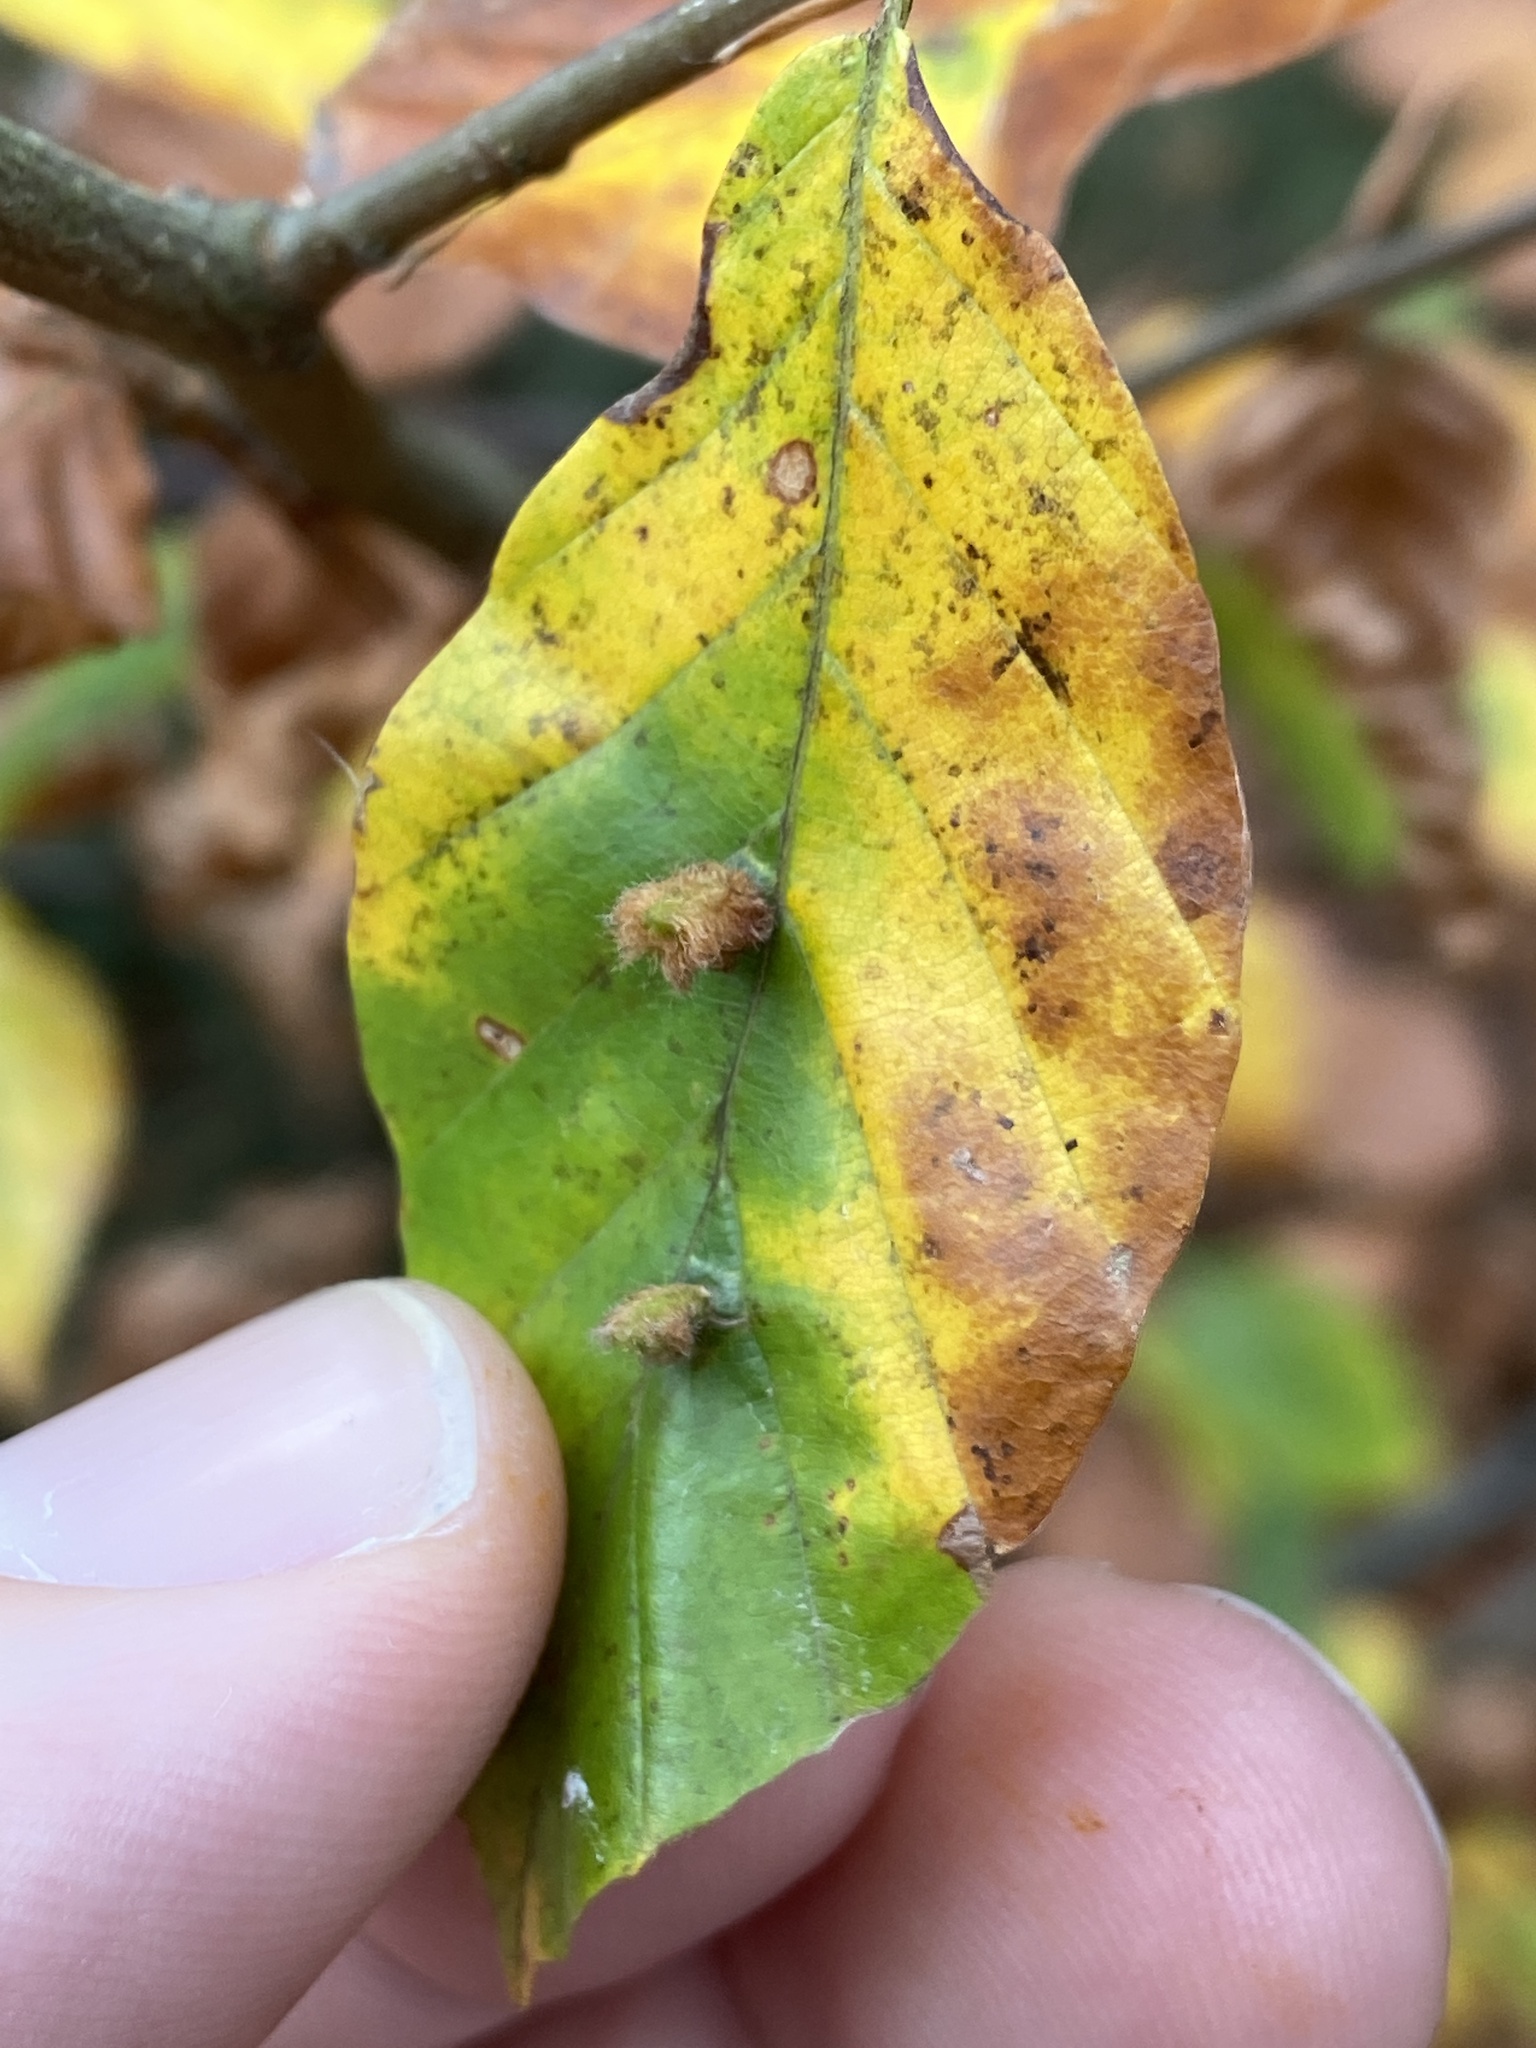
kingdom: Animalia
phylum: Arthropoda
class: Insecta
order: Diptera
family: Cecidomyiidae
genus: Hartigiola
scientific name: Hartigiola annulipes
